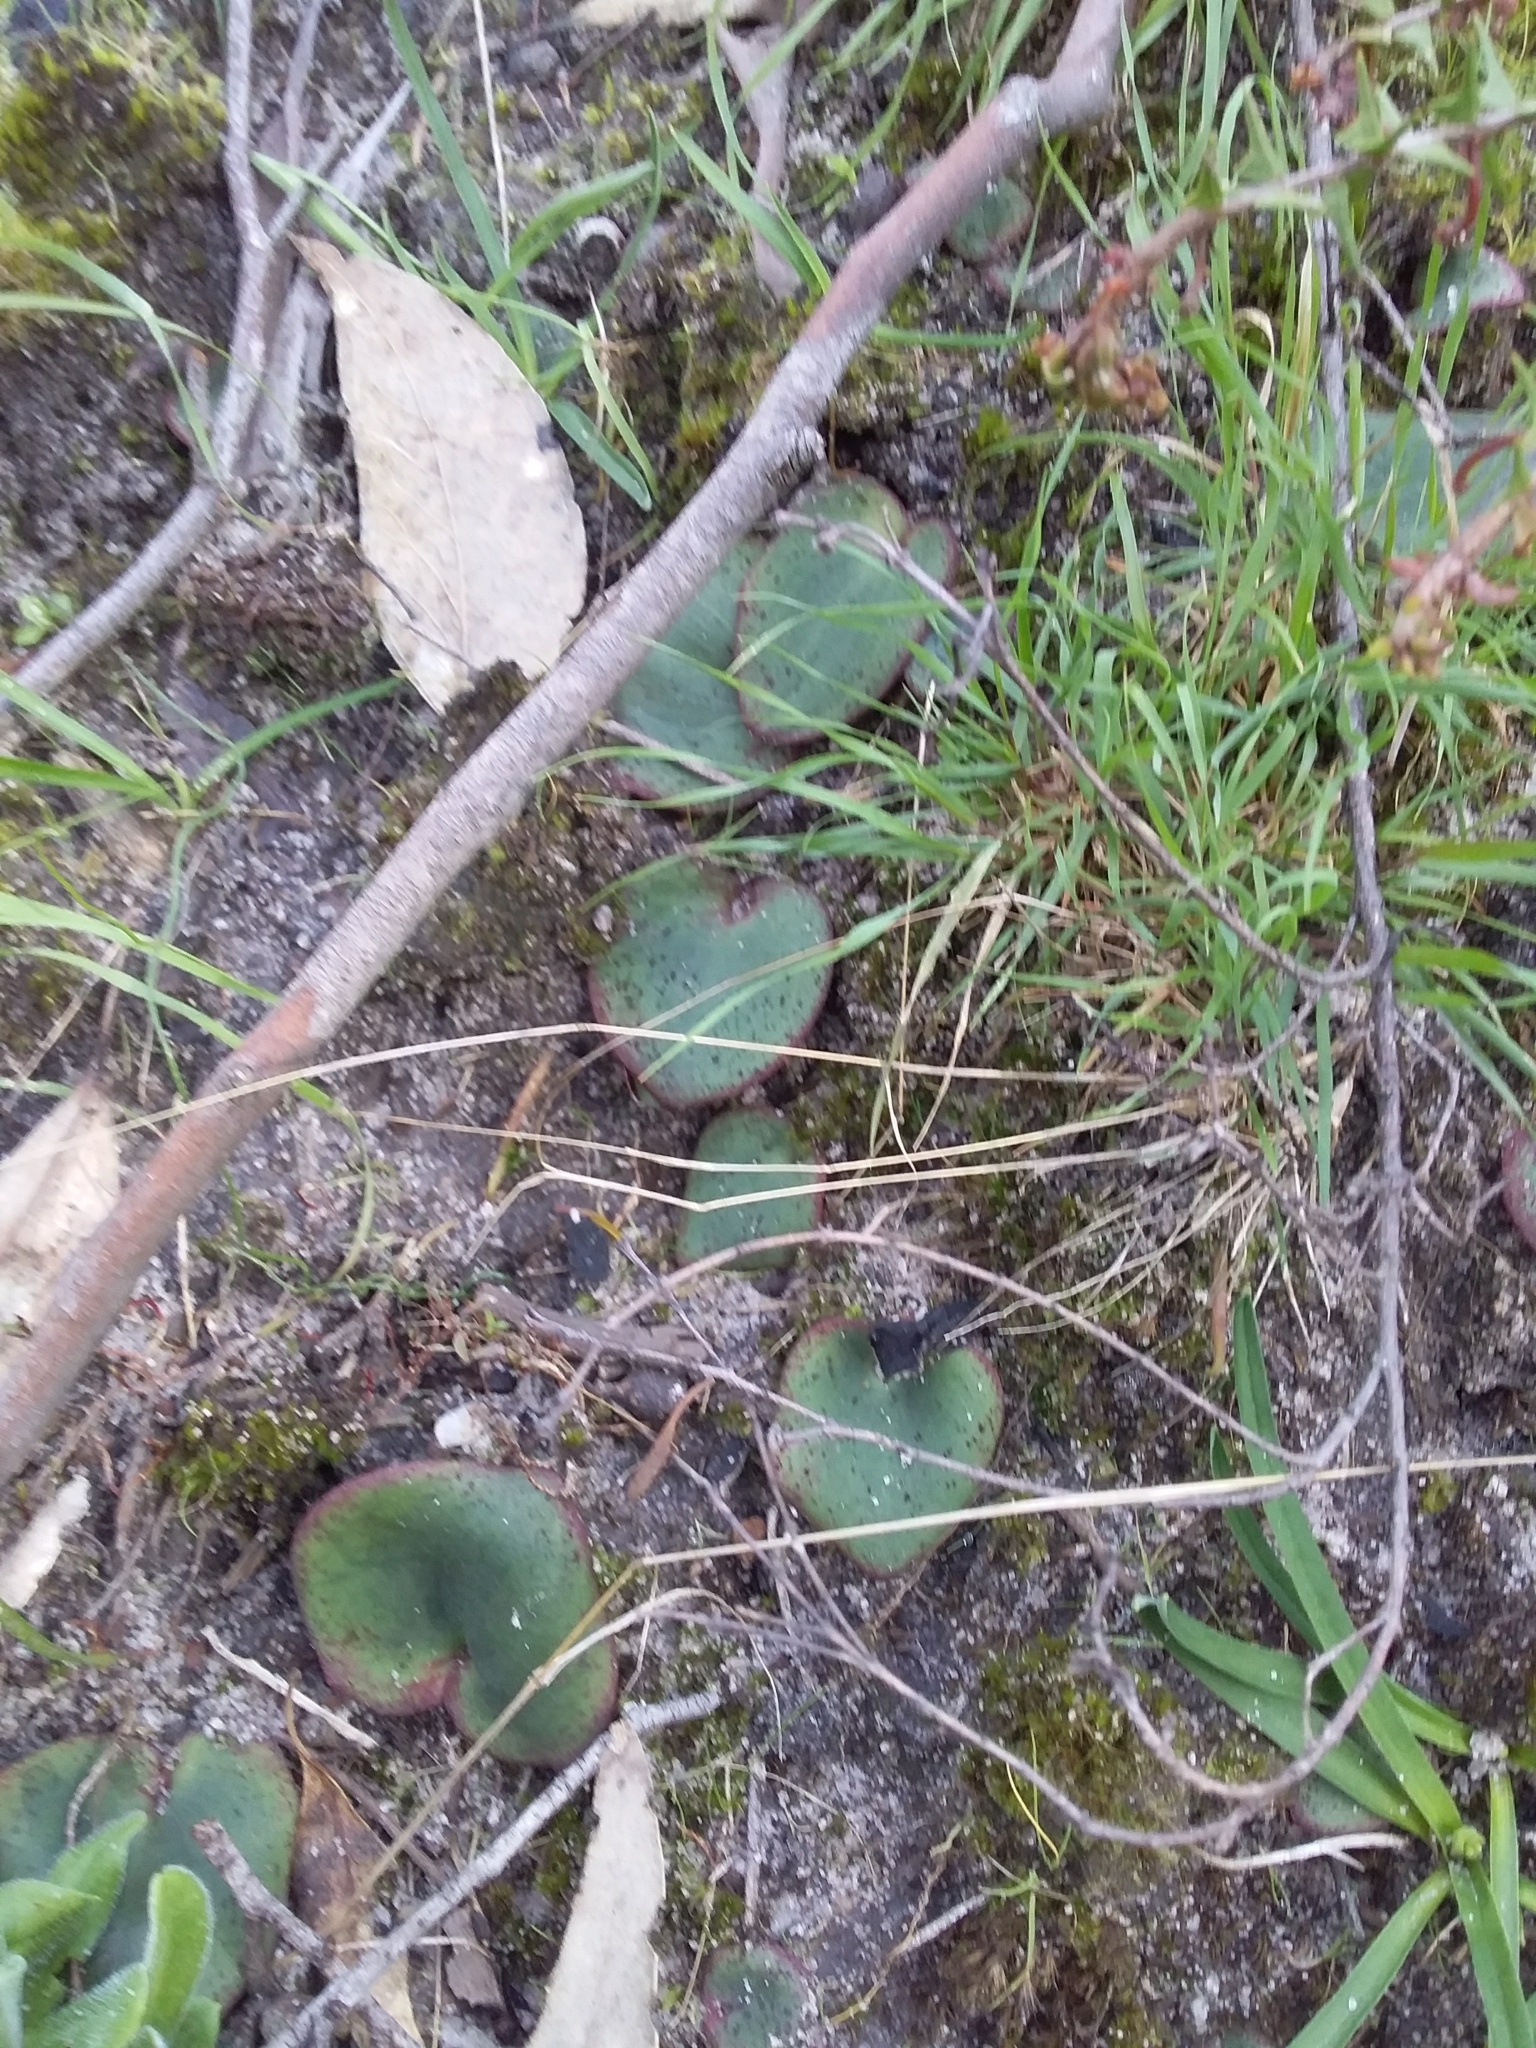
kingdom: Plantae
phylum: Tracheophyta
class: Liliopsida
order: Asparagales
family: Orchidaceae
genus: Pyrorchis
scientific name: Pyrorchis nigricans
